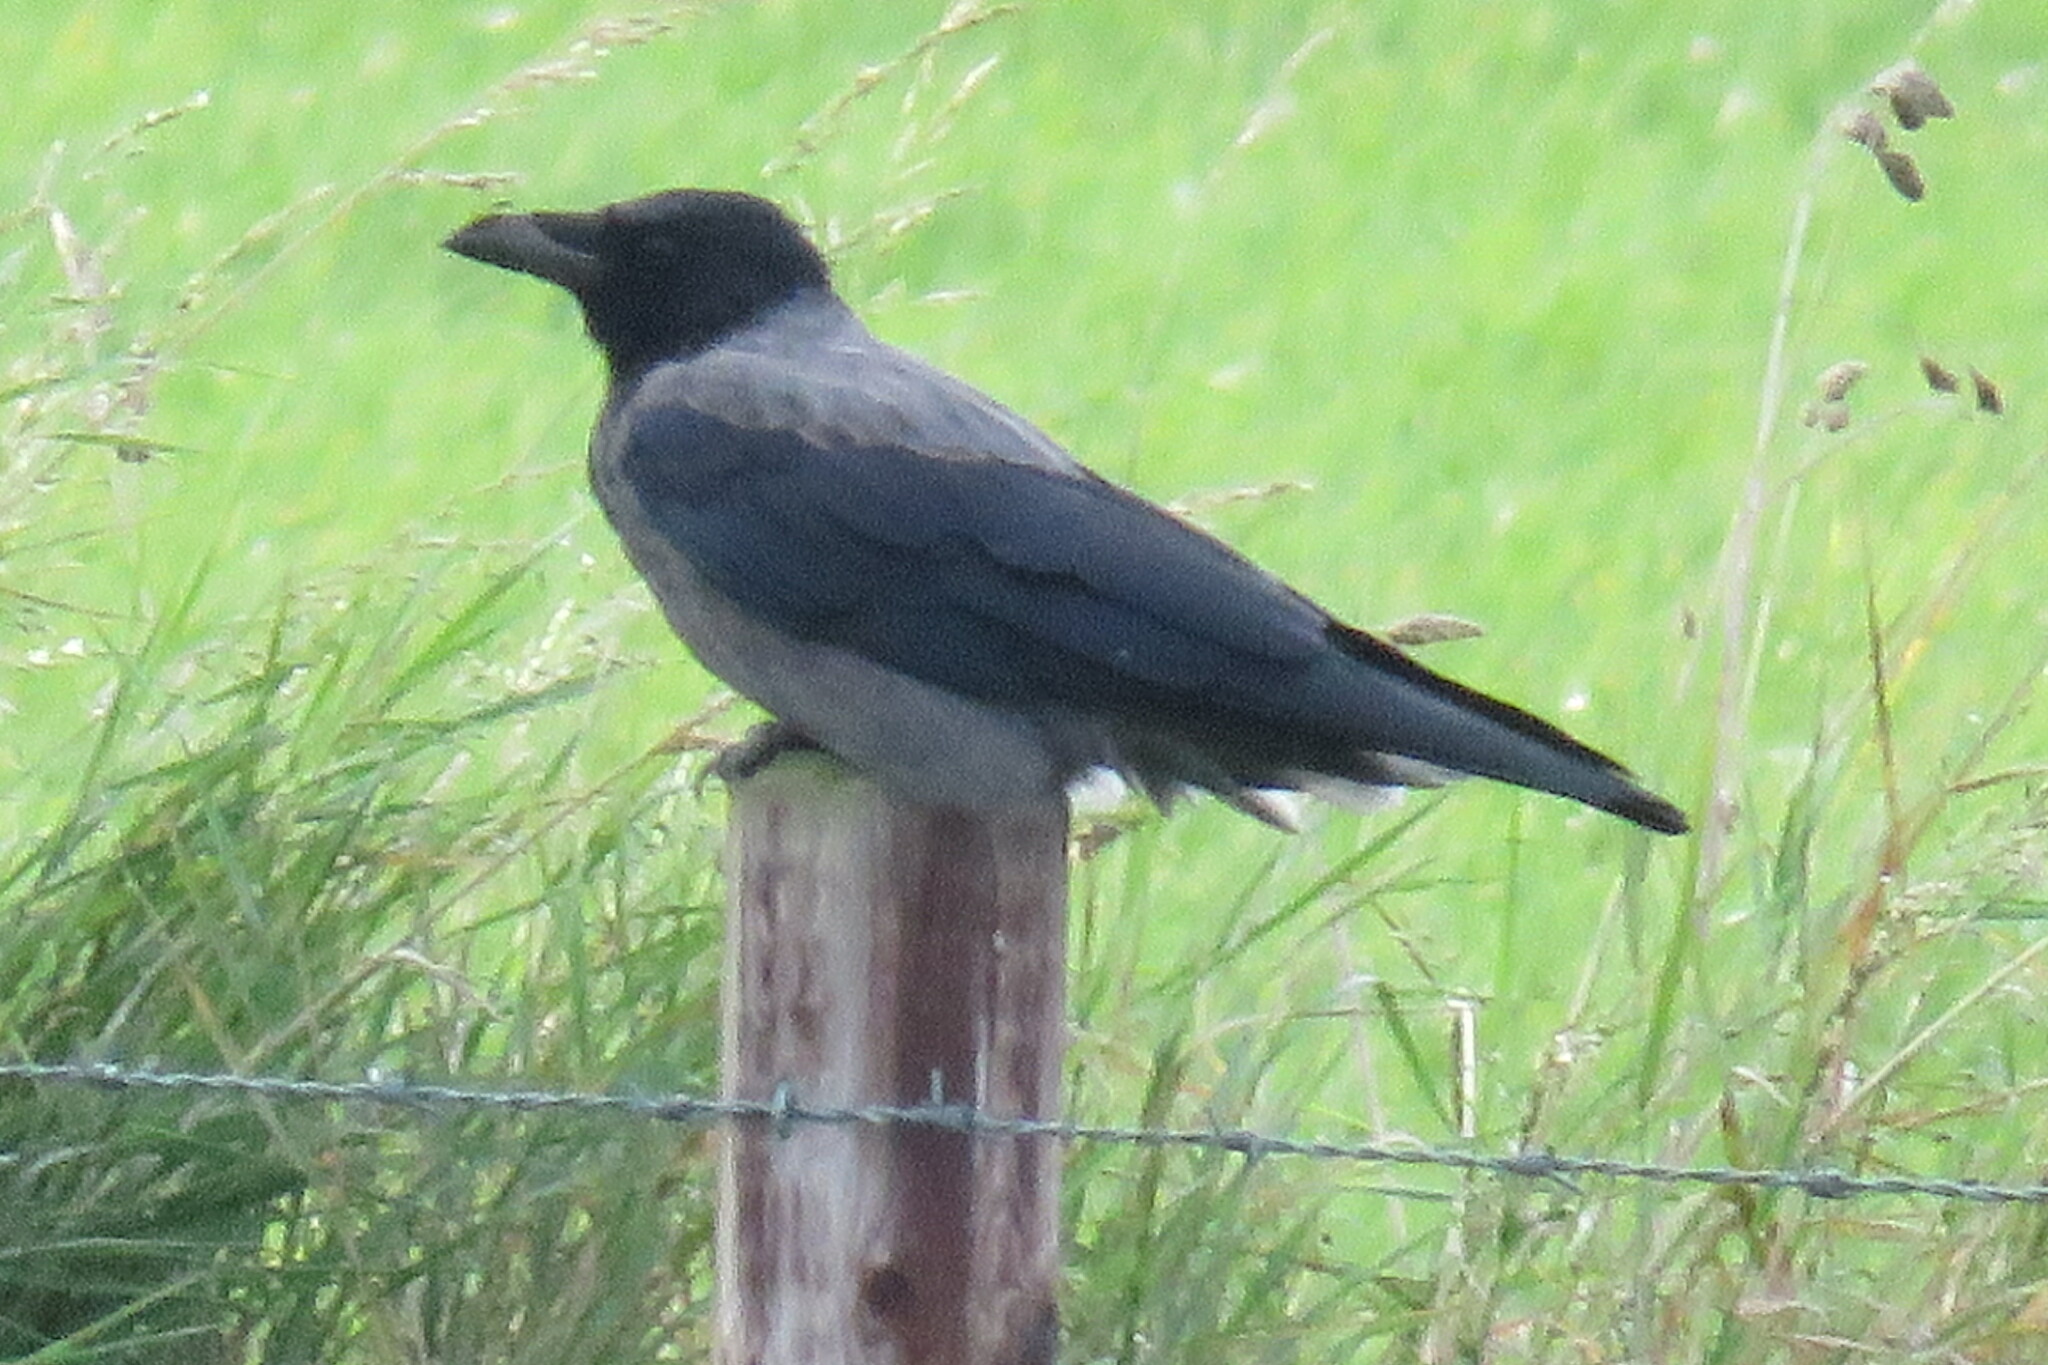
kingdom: Animalia
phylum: Chordata
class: Aves
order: Passeriformes
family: Corvidae
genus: Corvus
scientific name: Corvus cornix
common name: Hooded crow
